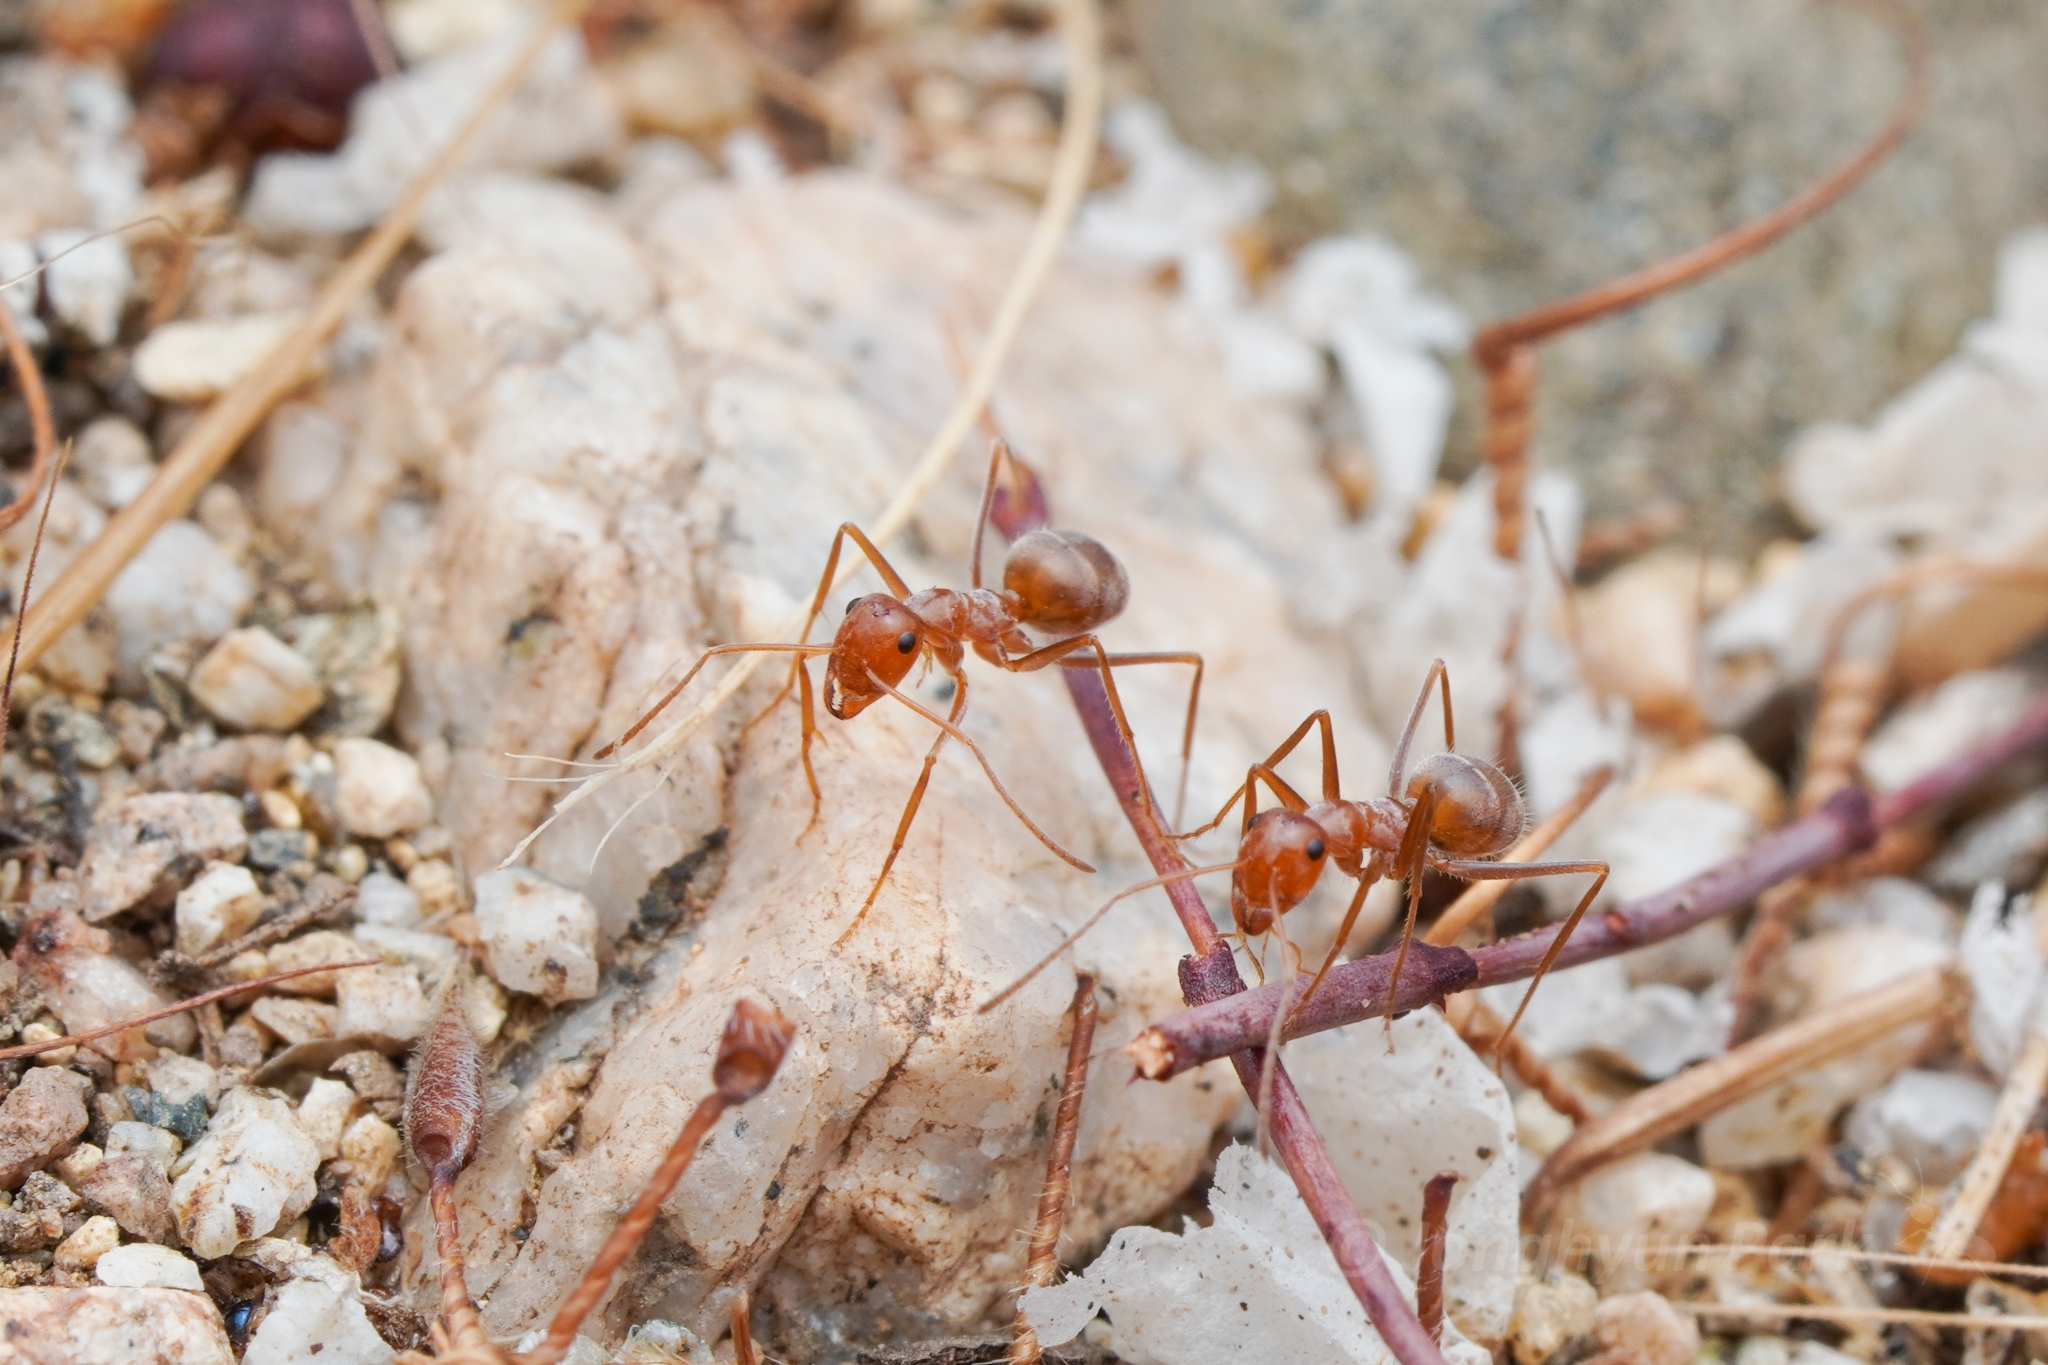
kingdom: Animalia
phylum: Arthropoda
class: Insecta
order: Hymenoptera
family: Formicidae
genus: Myrmecocystus
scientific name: Myrmecocystus wheeleri
